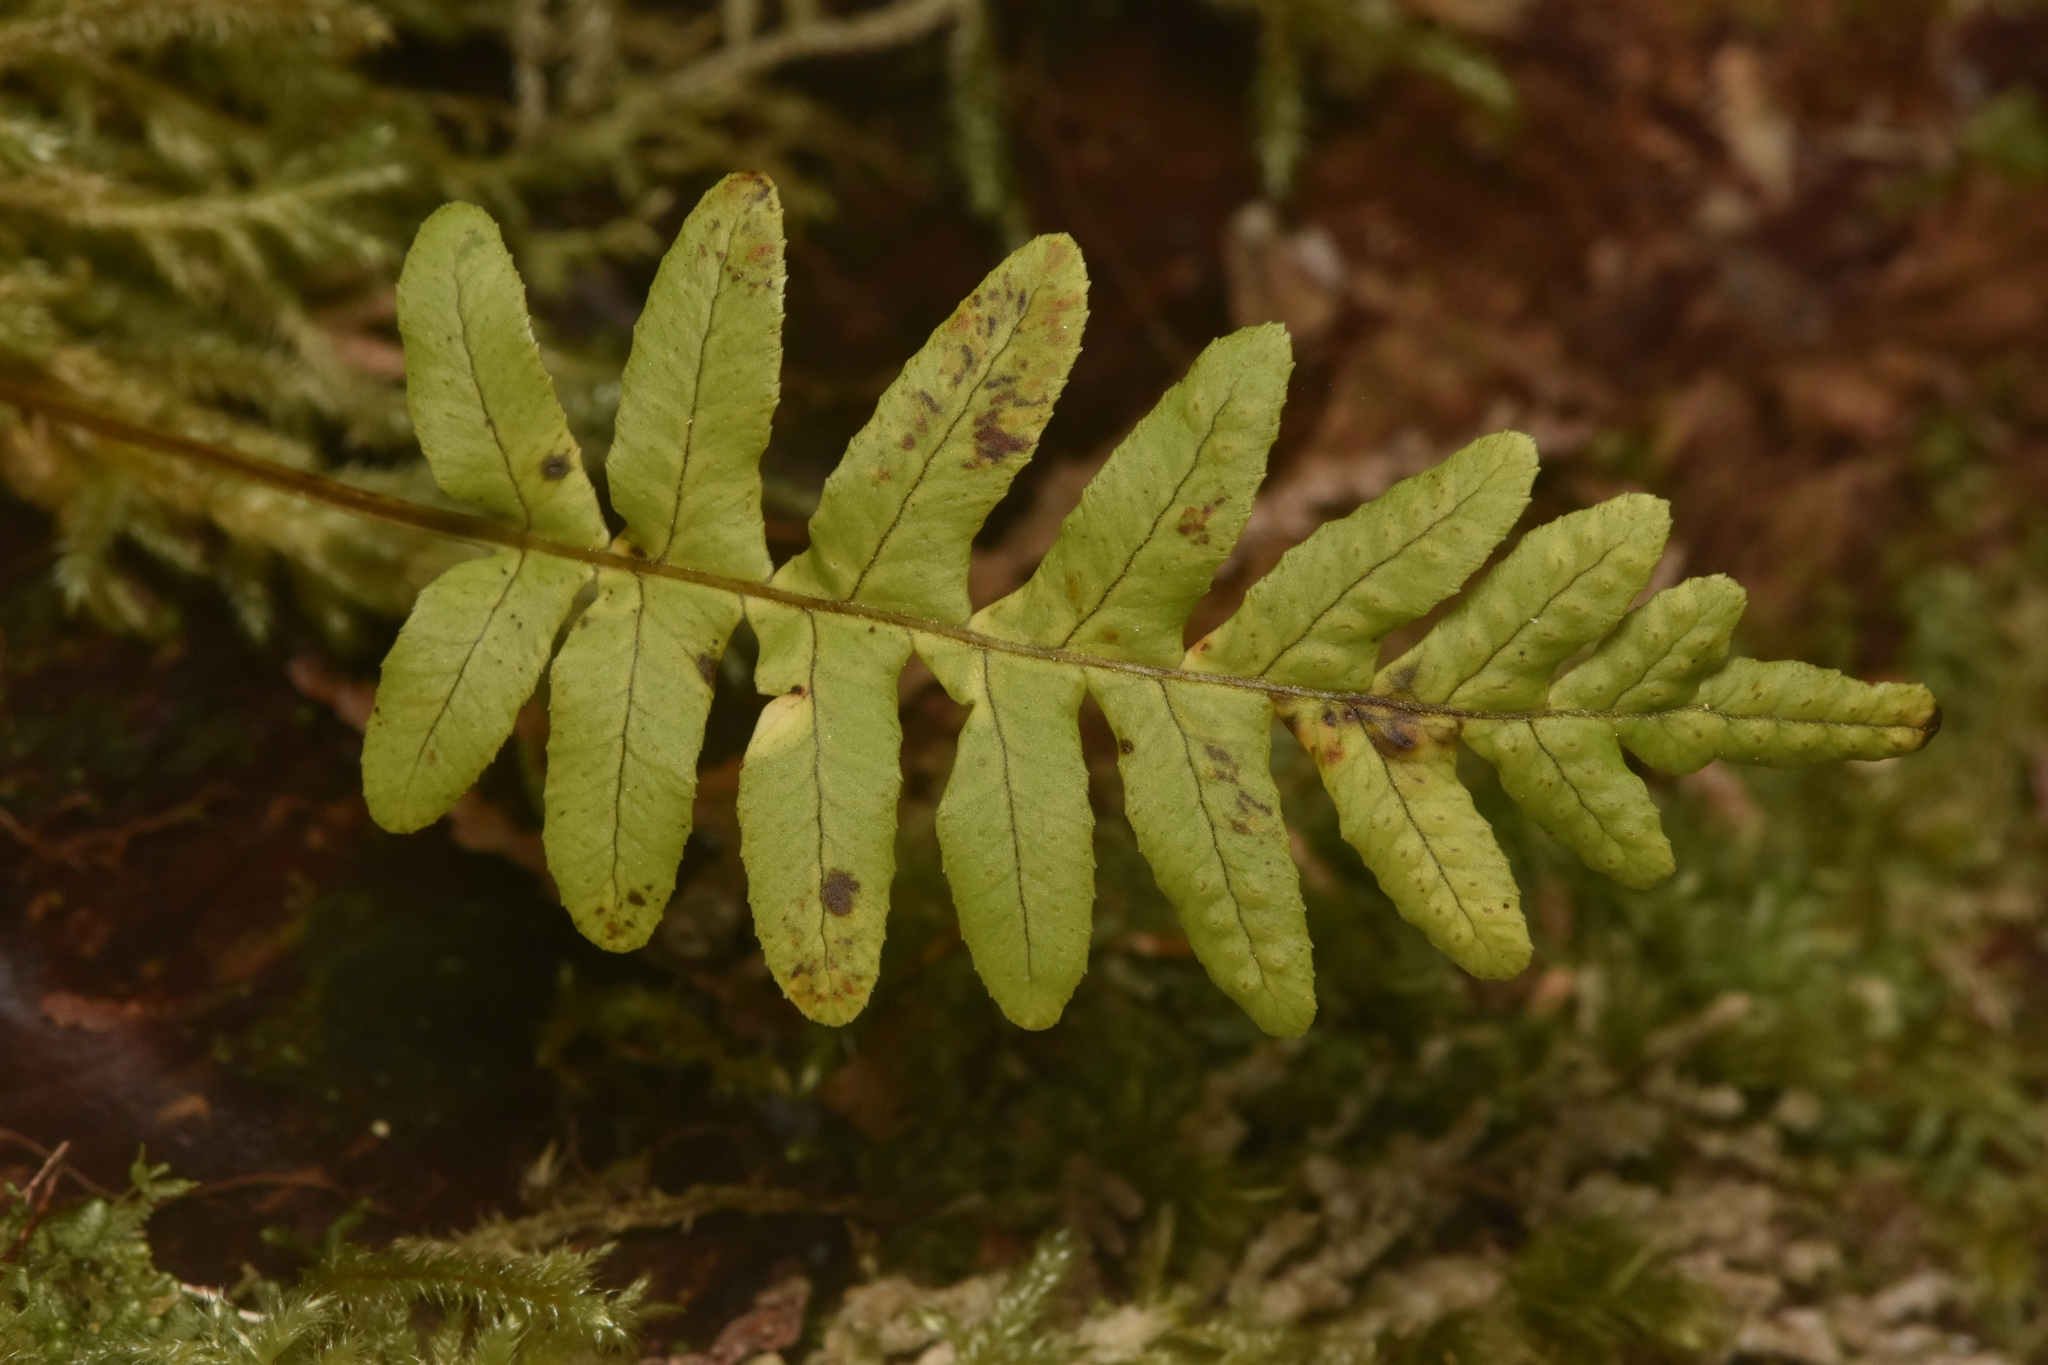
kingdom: Plantae
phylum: Tracheophyta
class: Polypodiopsida
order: Polypodiales
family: Polypodiaceae
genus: Polypodium
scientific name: Polypodium glycyrrhiza
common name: Licorice fern
